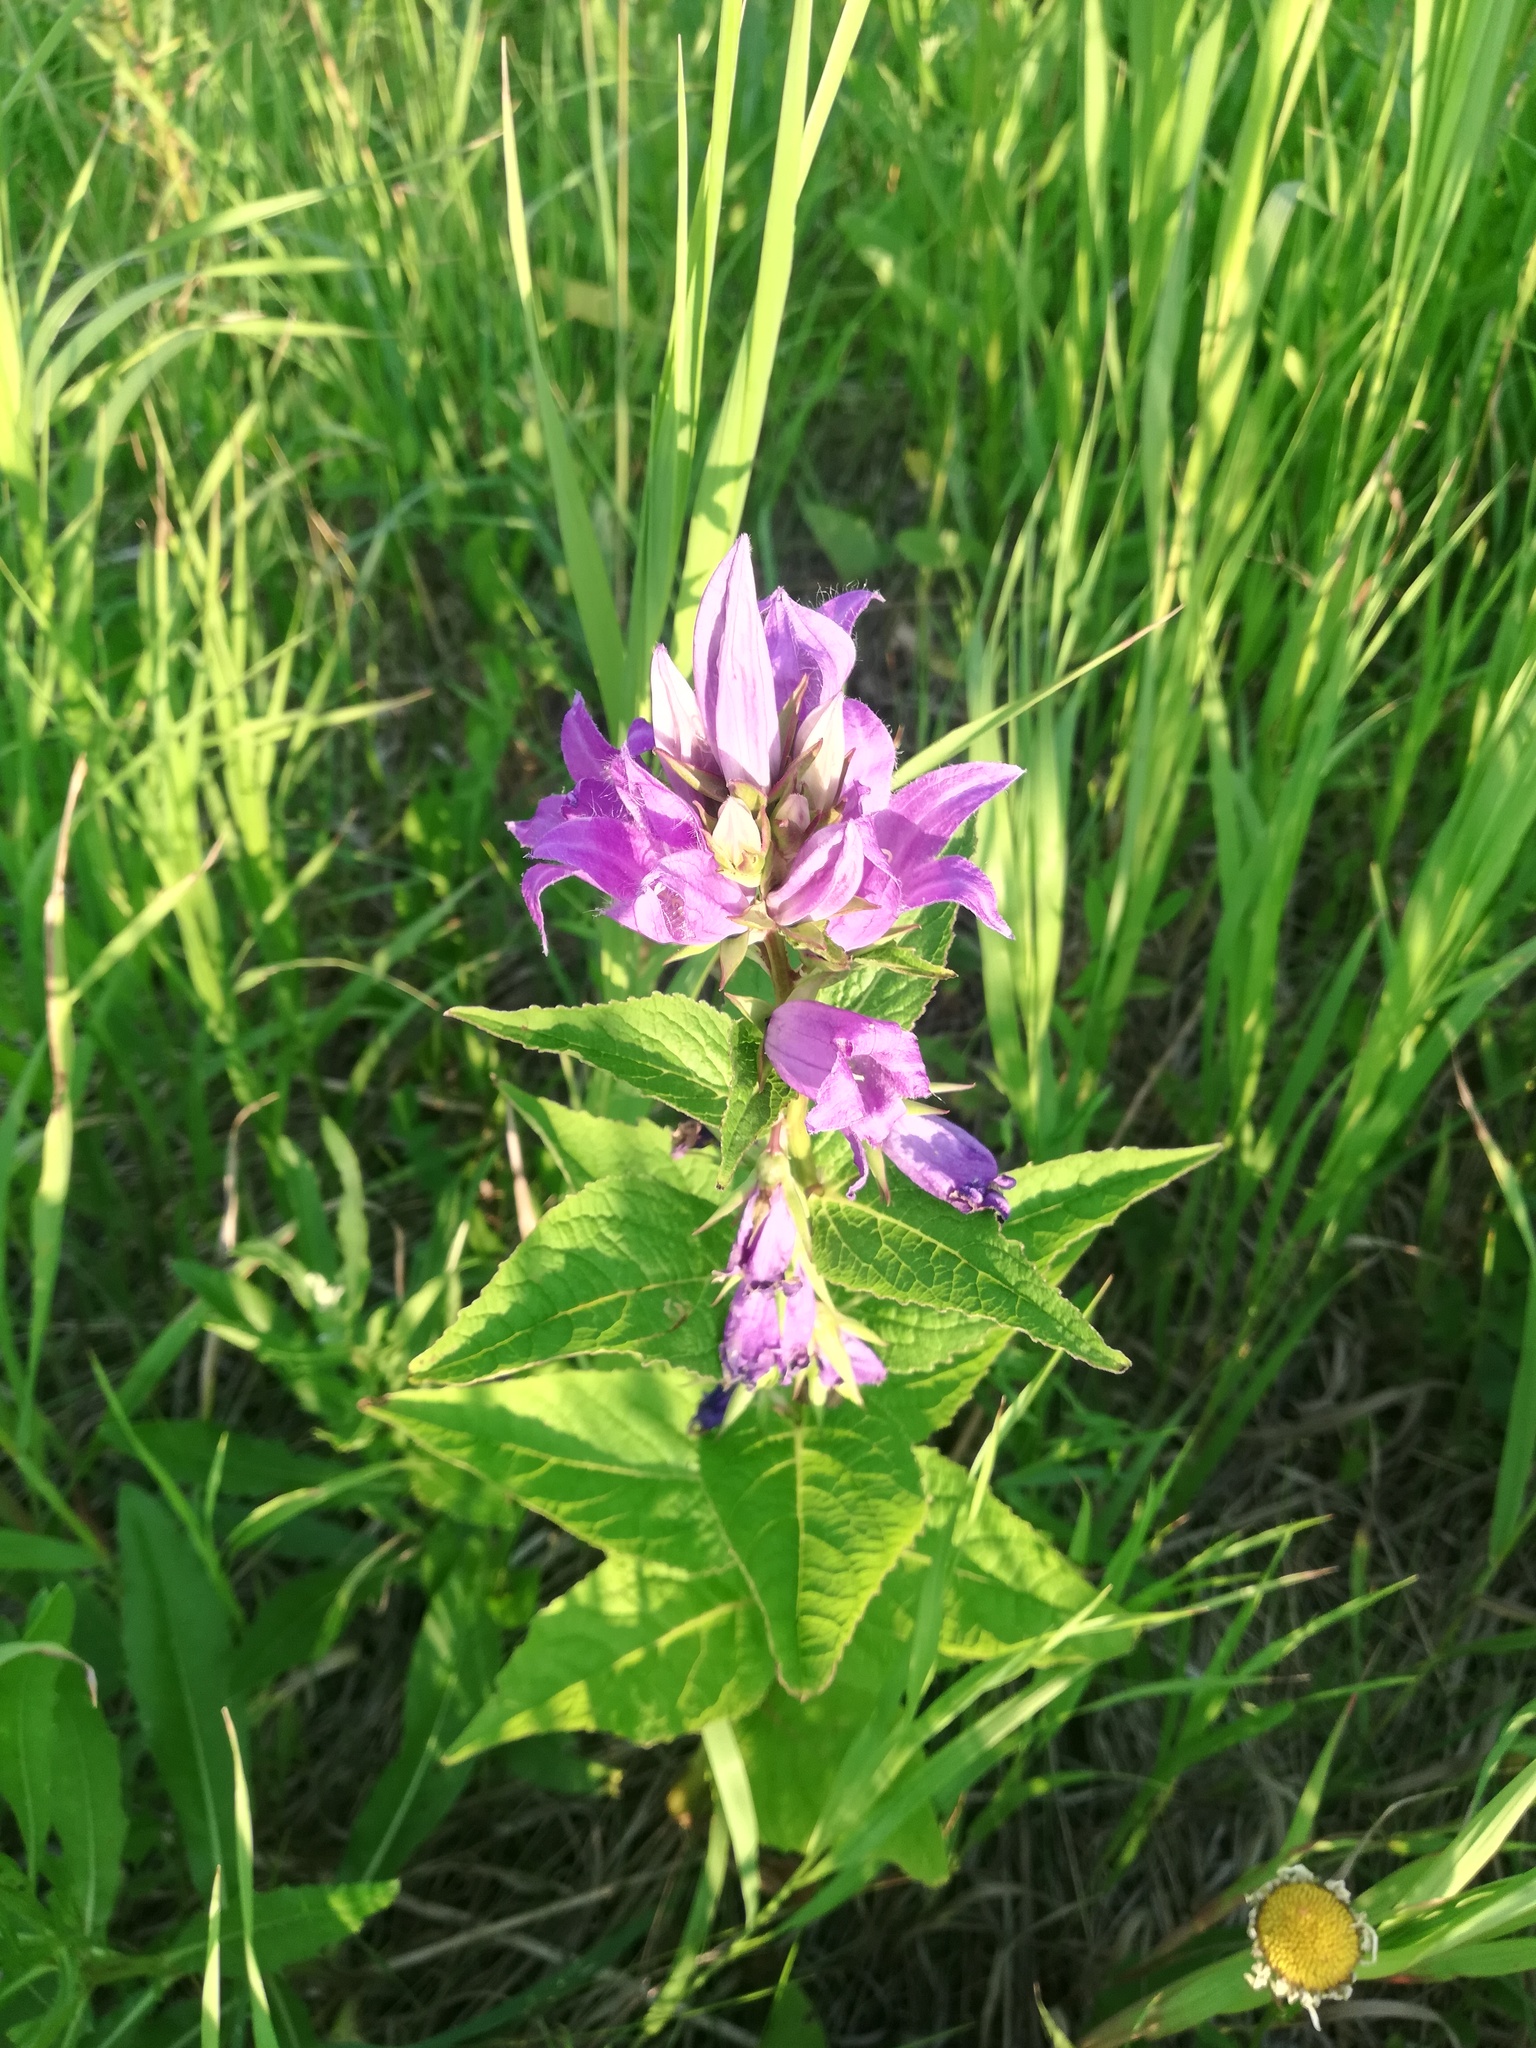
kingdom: Plantae
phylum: Tracheophyta
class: Magnoliopsida
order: Asterales
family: Campanulaceae
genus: Campanula
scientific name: Campanula latifolia
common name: Giant bellflower
